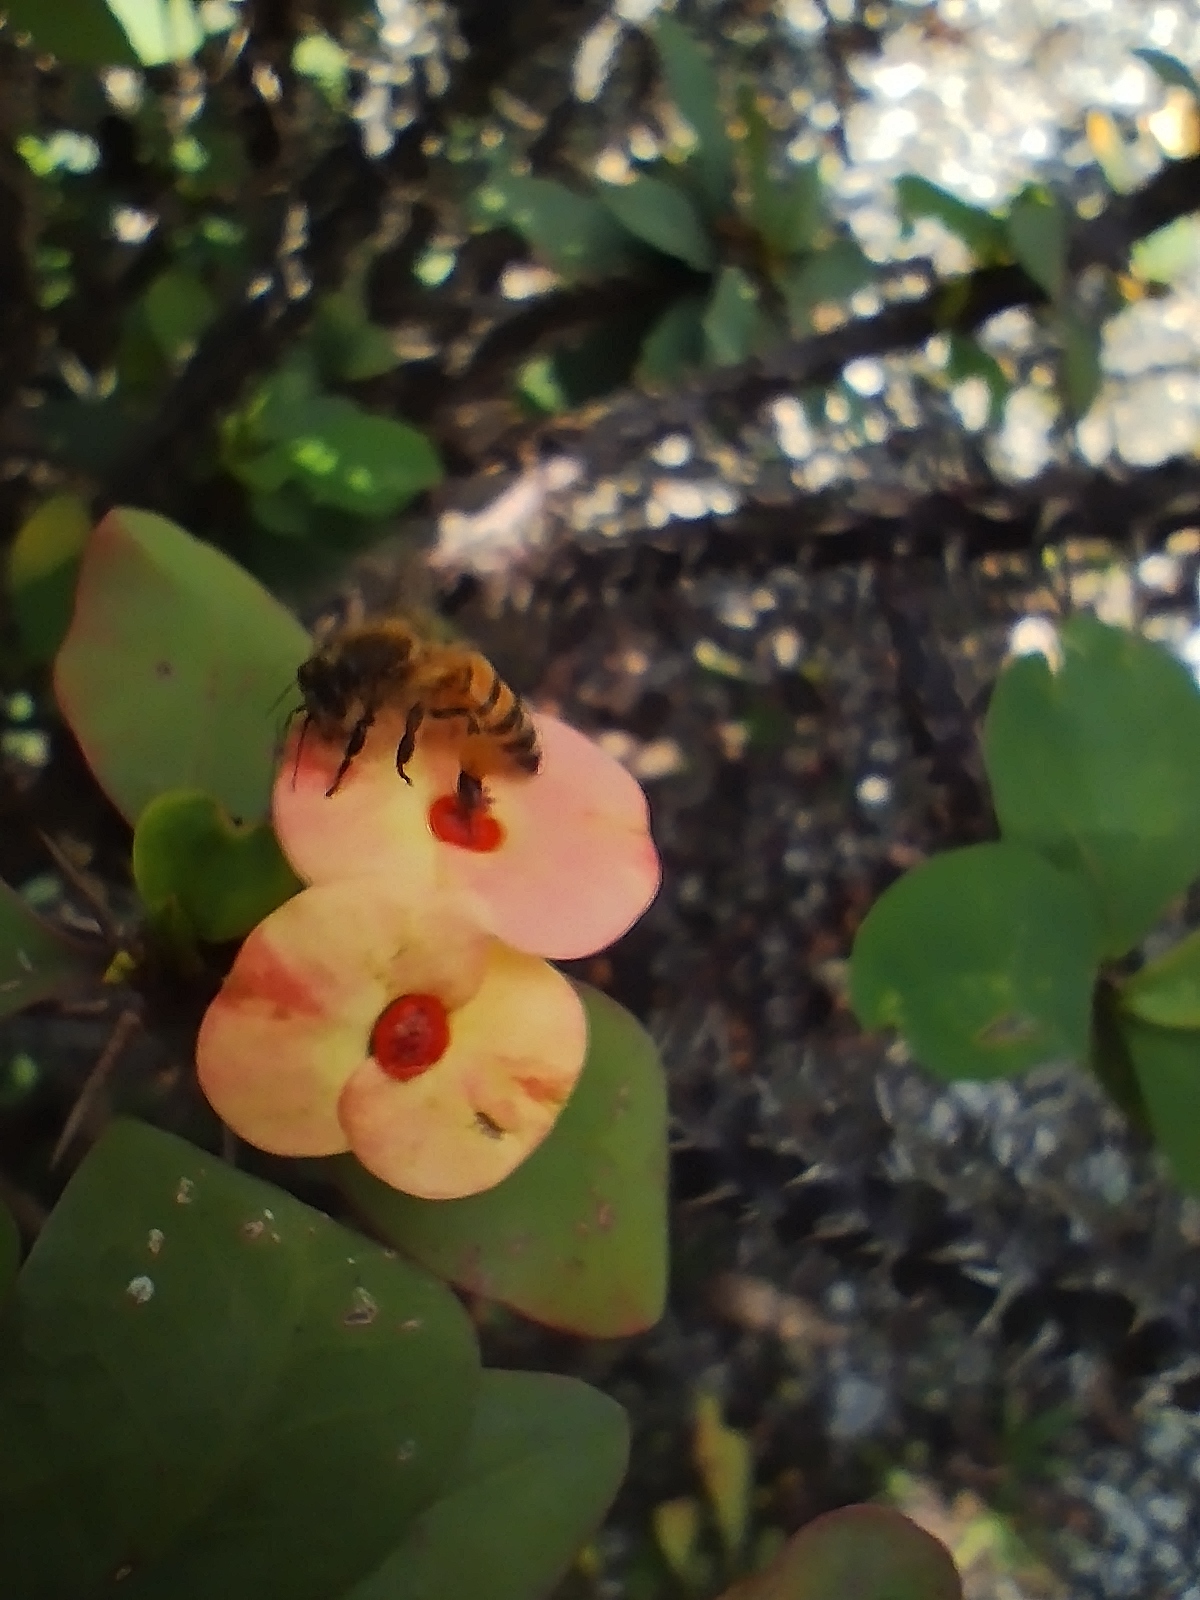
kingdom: Animalia
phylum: Arthropoda
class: Insecta
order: Hymenoptera
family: Apidae
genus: Apis
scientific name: Apis mellifera
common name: Honey bee
